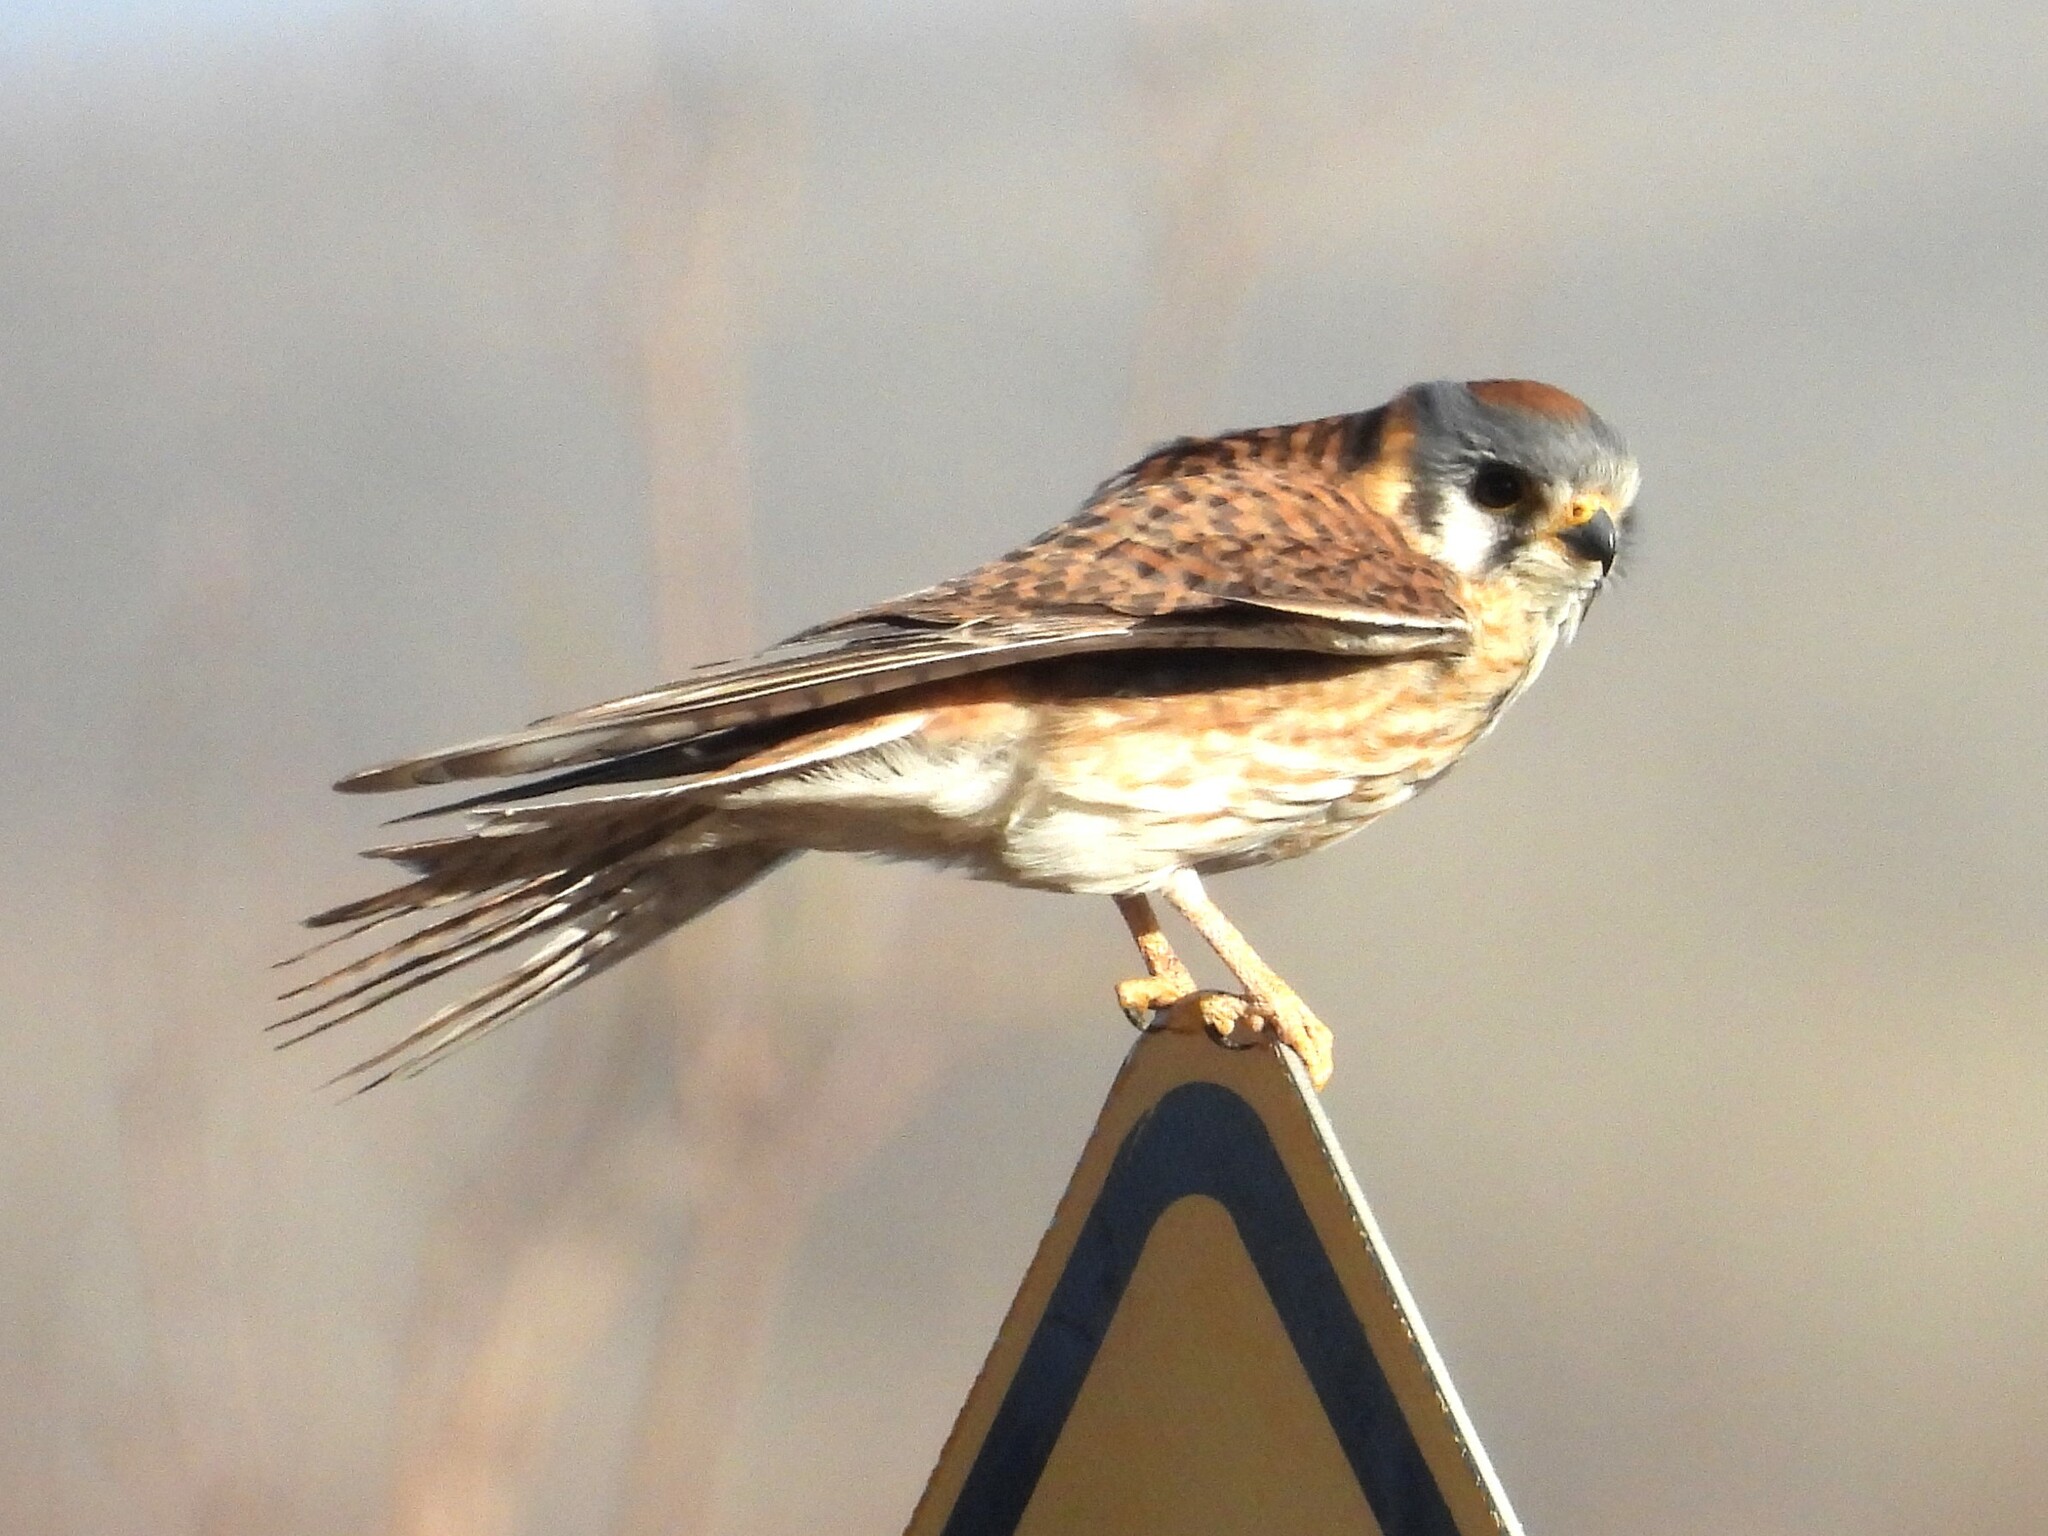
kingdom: Animalia
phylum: Chordata
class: Aves
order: Falconiformes
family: Falconidae
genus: Falco
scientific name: Falco sparverius
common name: American kestrel
